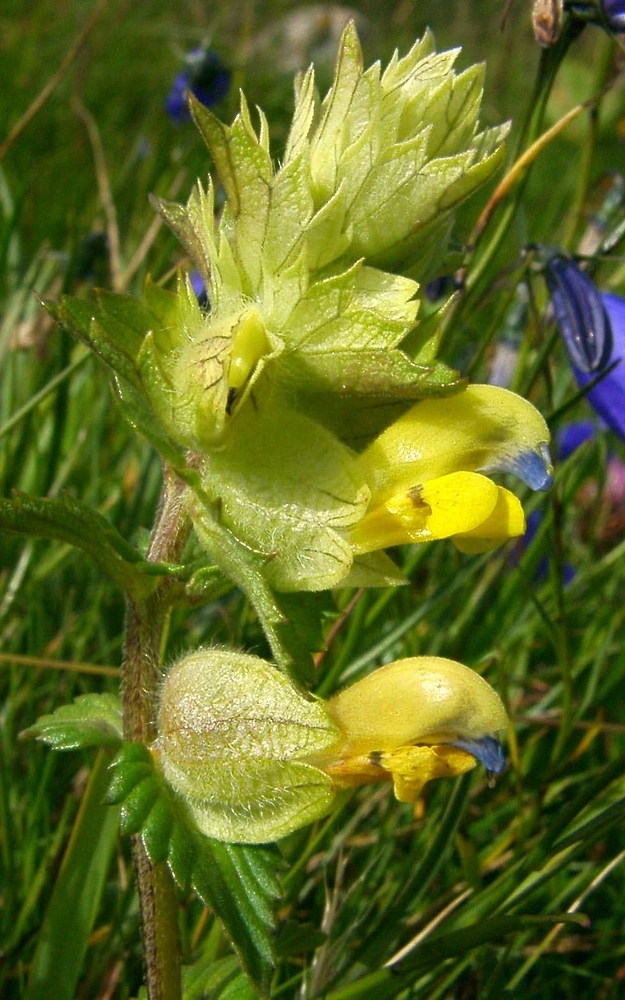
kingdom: Plantae
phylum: Tracheophyta
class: Magnoliopsida
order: Lamiales
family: Orobanchaceae
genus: Rhinanthus
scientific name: Rhinanthus alectorolophus
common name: Greater yellow-rattle
